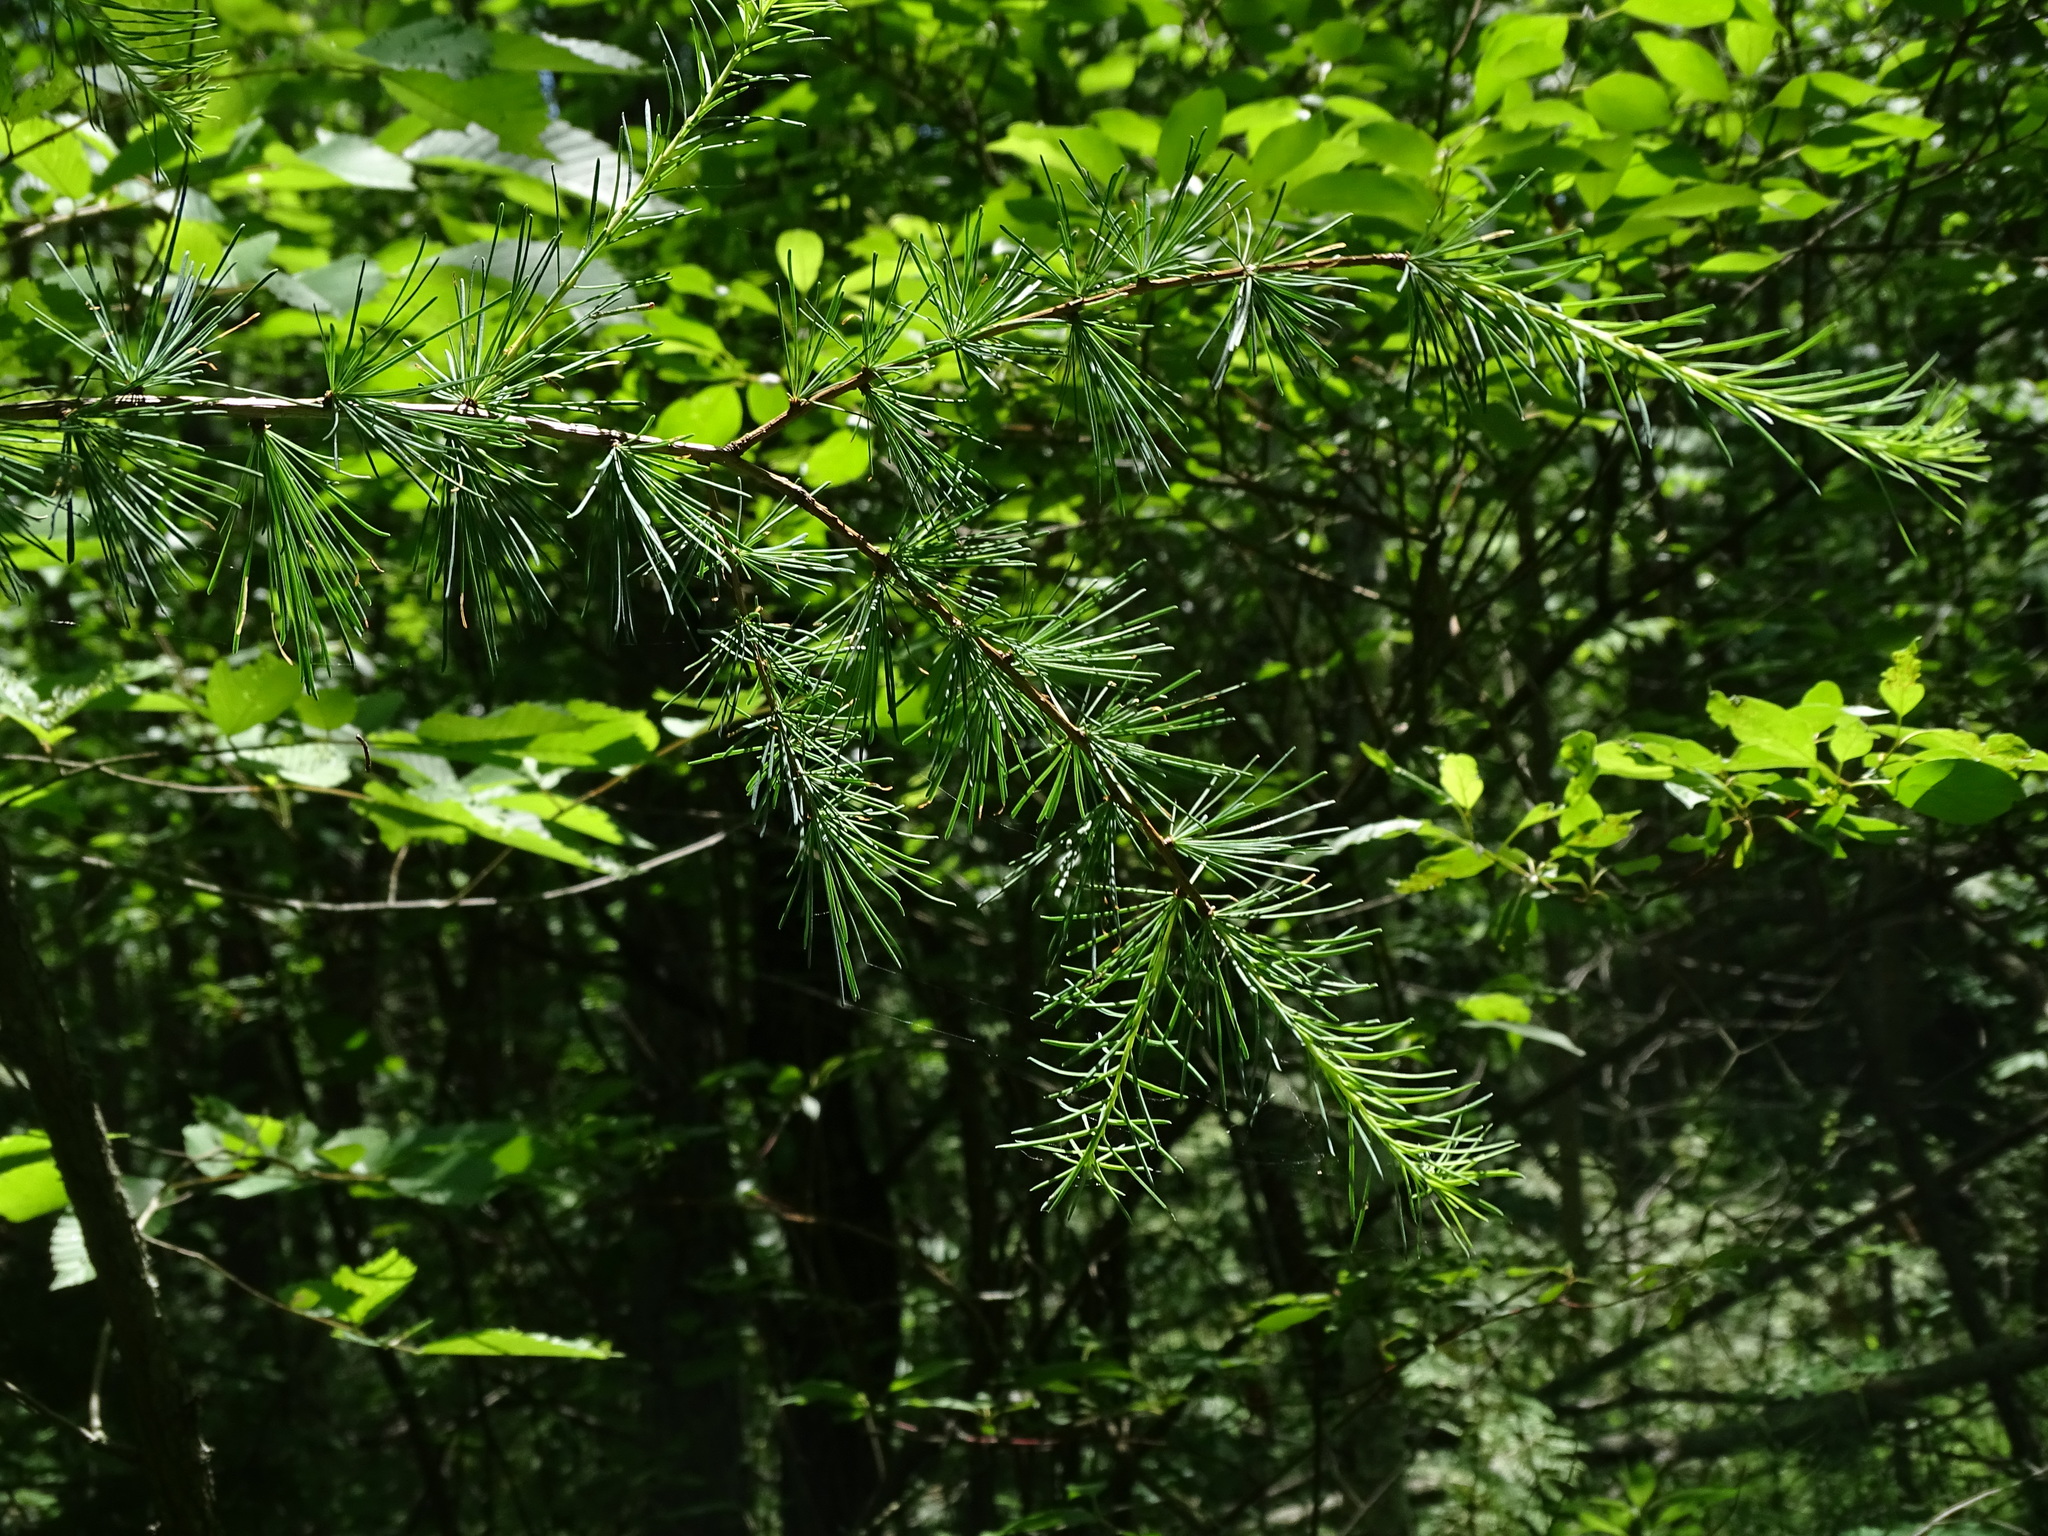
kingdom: Plantae
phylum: Tracheophyta
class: Pinopsida
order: Pinales
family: Pinaceae
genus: Larix
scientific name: Larix laricina
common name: American larch
